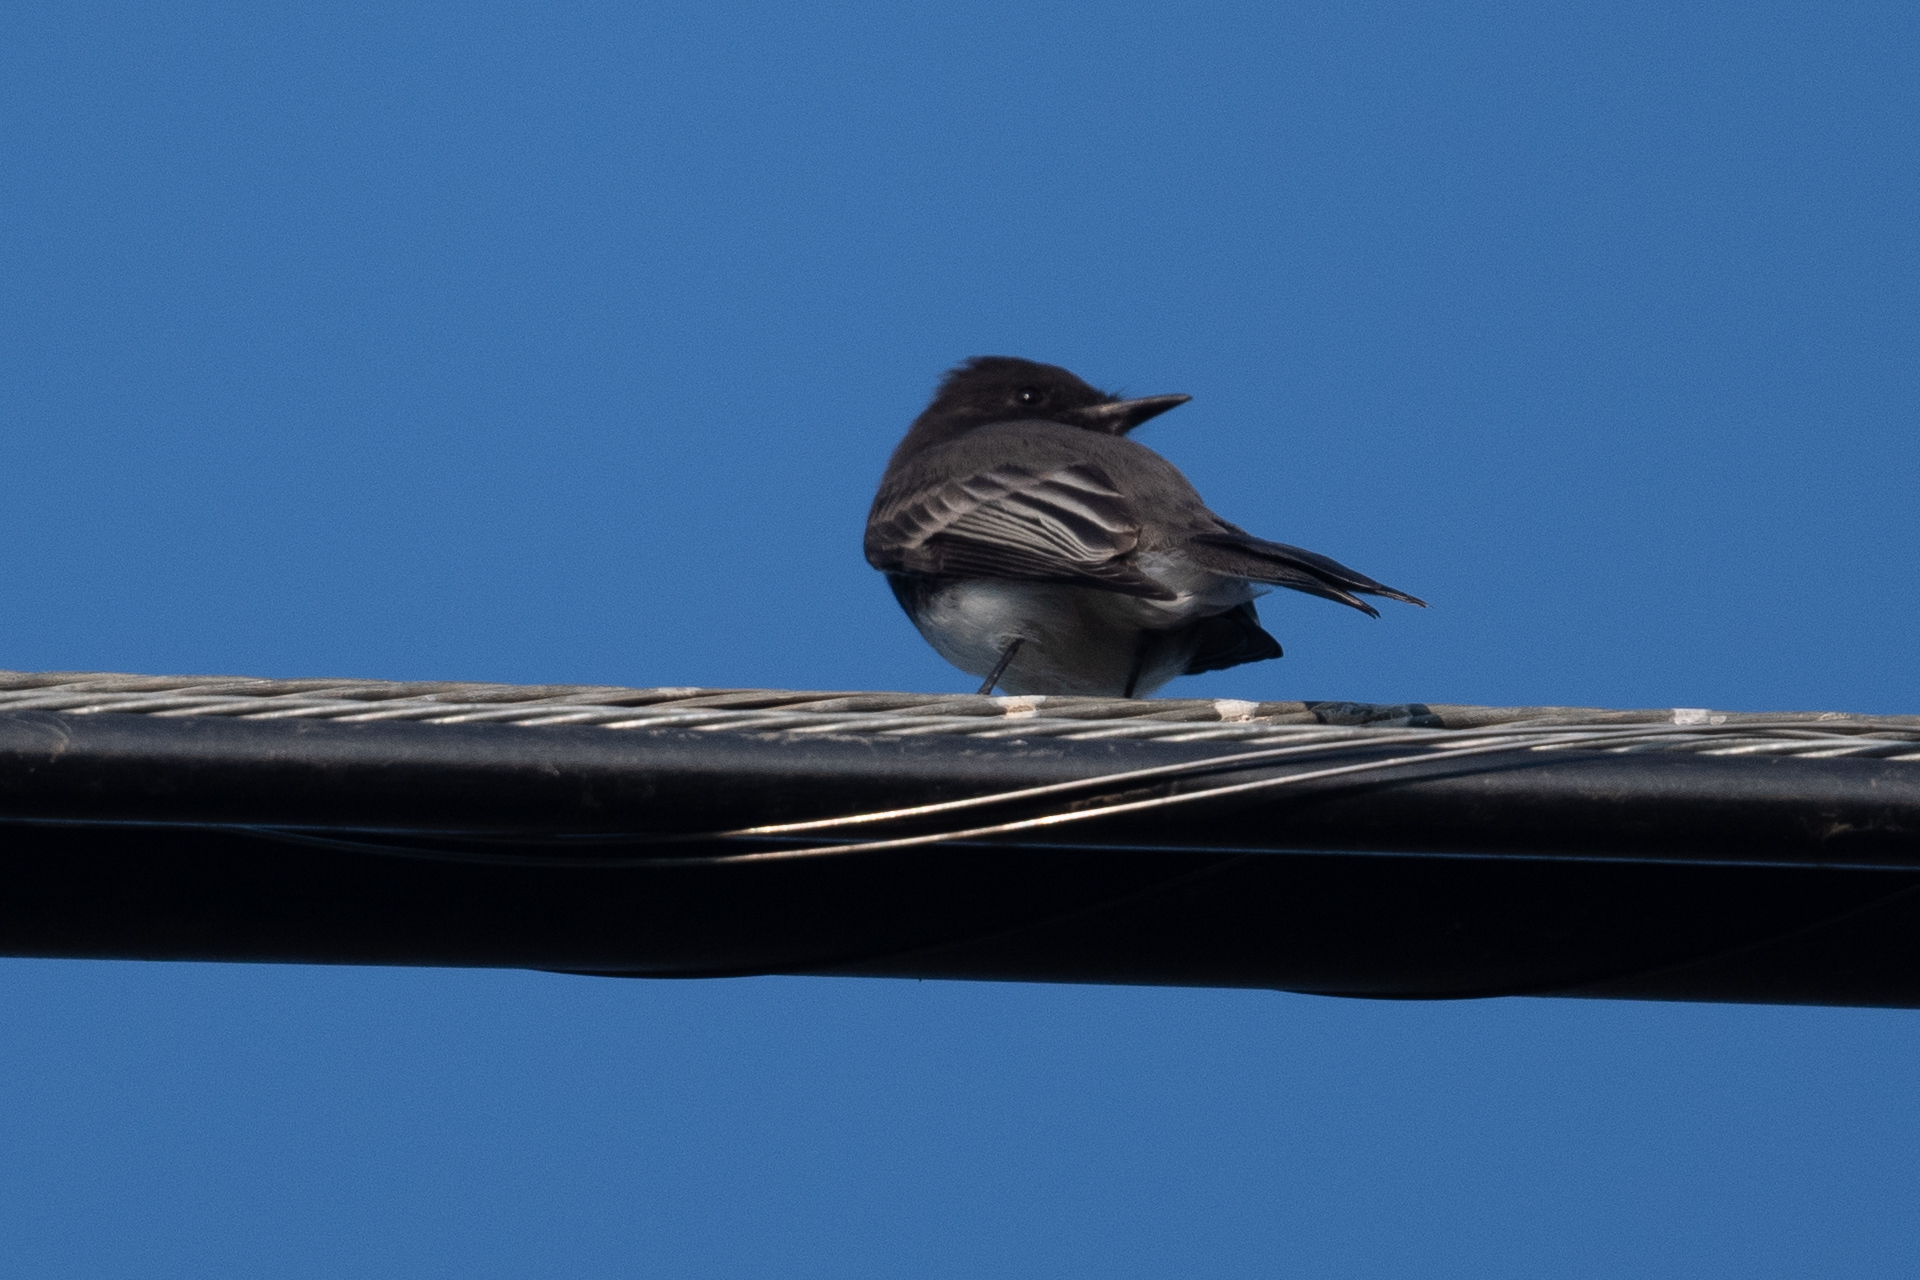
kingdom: Animalia
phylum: Chordata
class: Aves
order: Passeriformes
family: Tyrannidae
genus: Sayornis
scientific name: Sayornis nigricans
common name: Black phoebe
